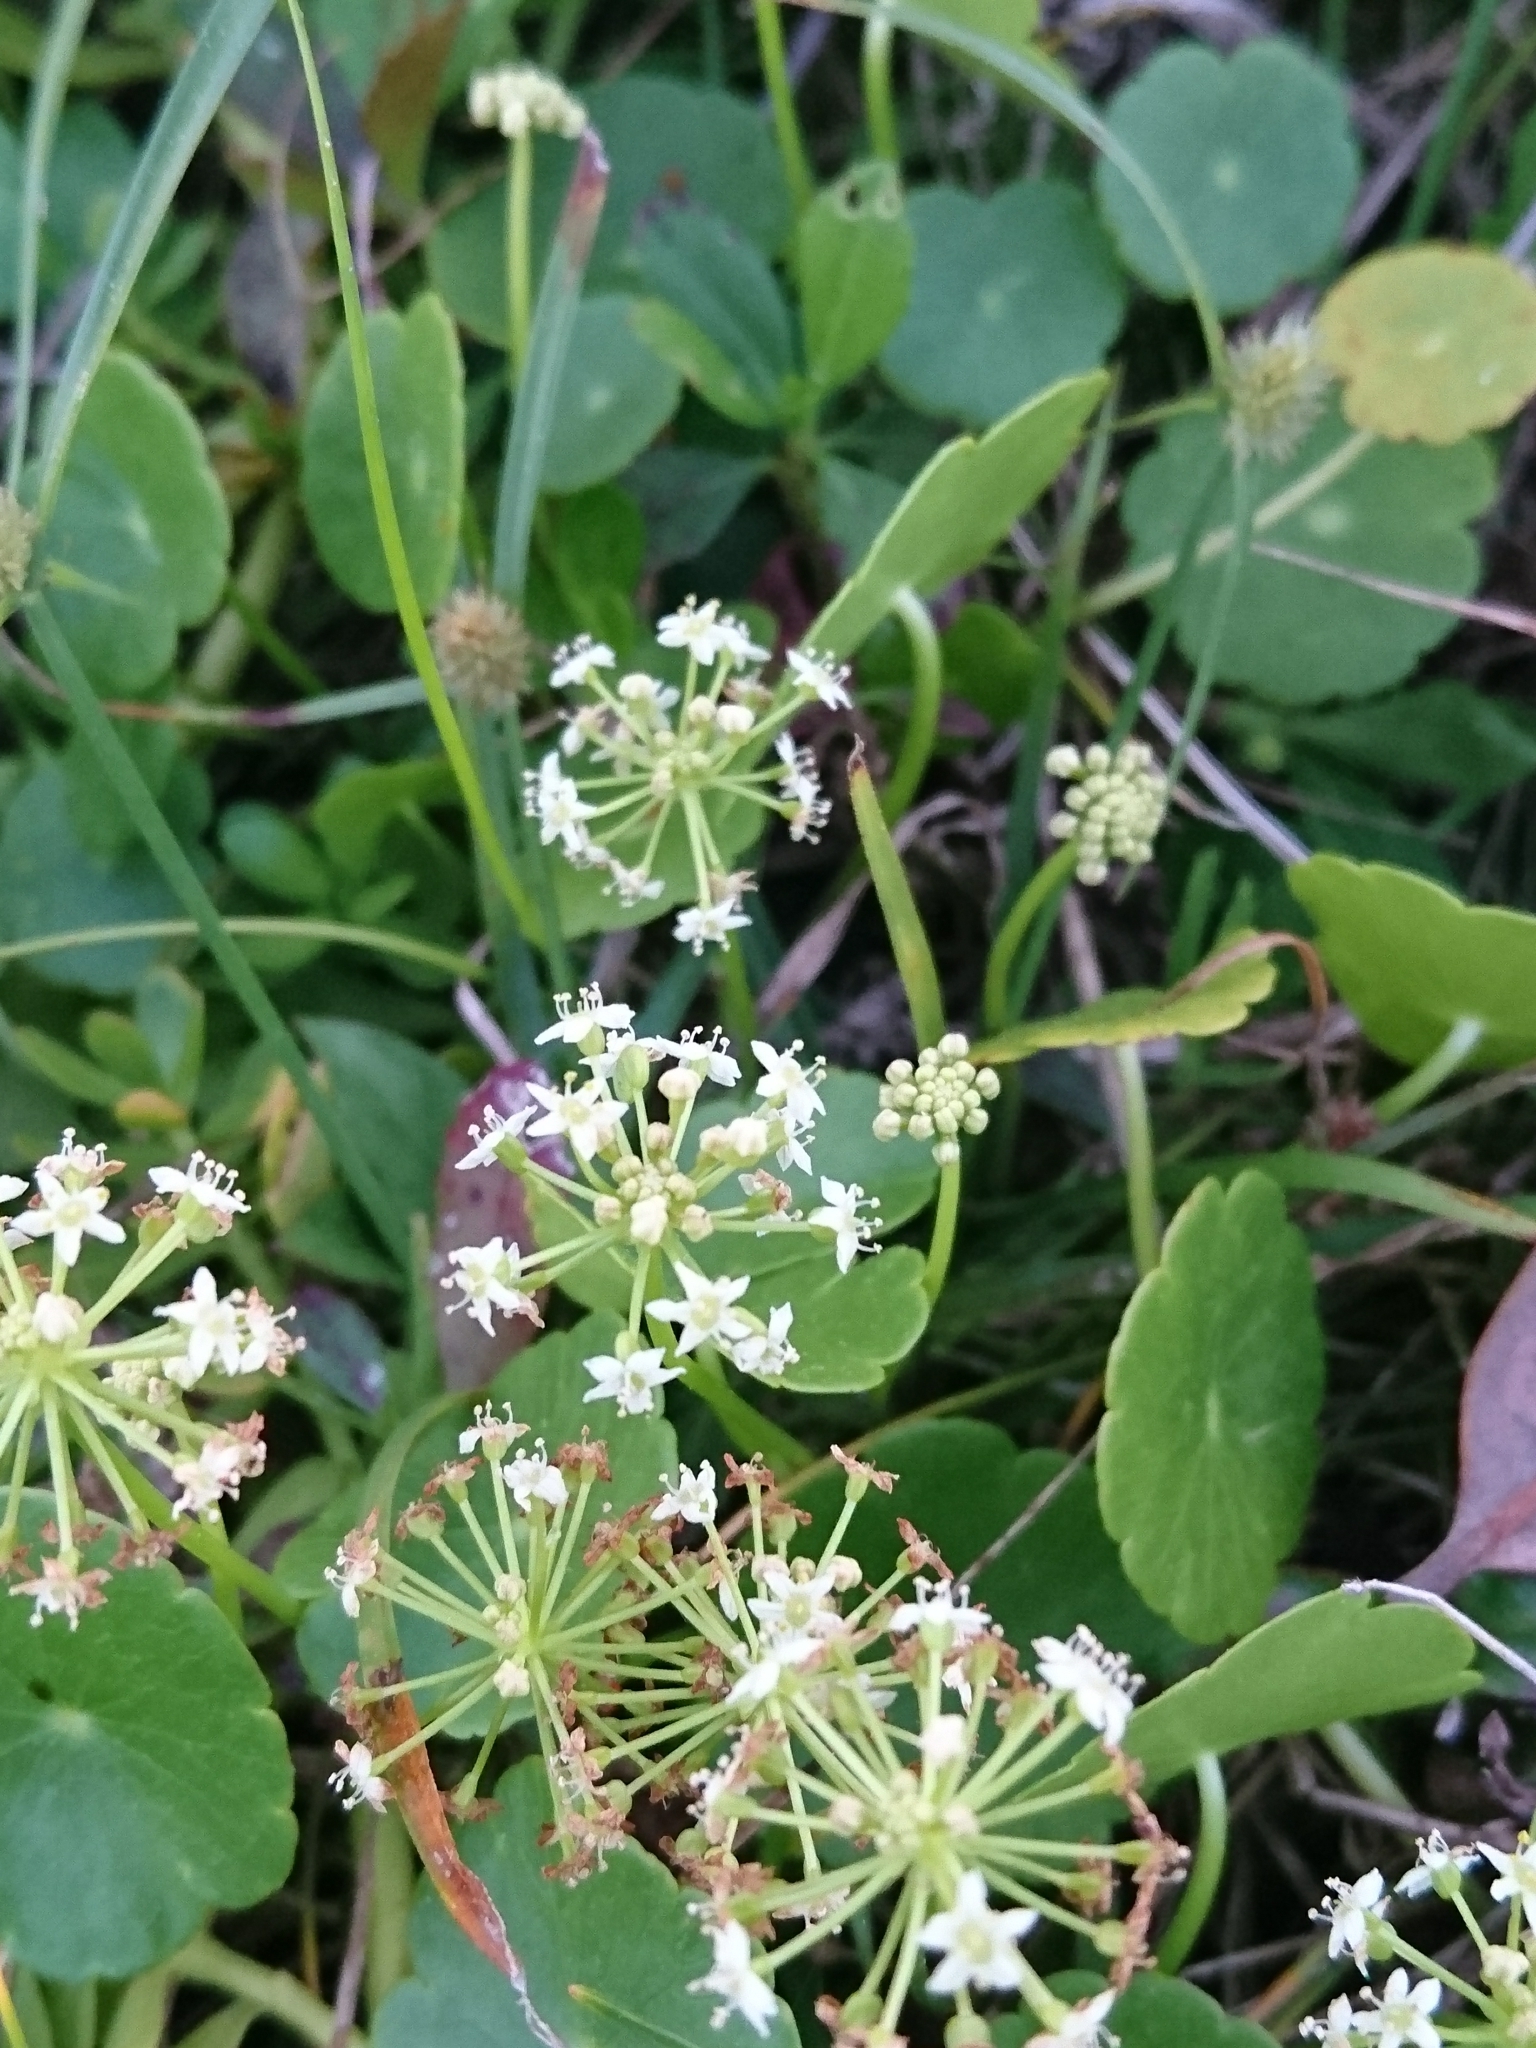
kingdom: Plantae
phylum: Tracheophyta
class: Magnoliopsida
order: Apiales
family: Araliaceae
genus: Hydrocotyle
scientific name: Hydrocotyle umbellata
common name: Water pennywort
